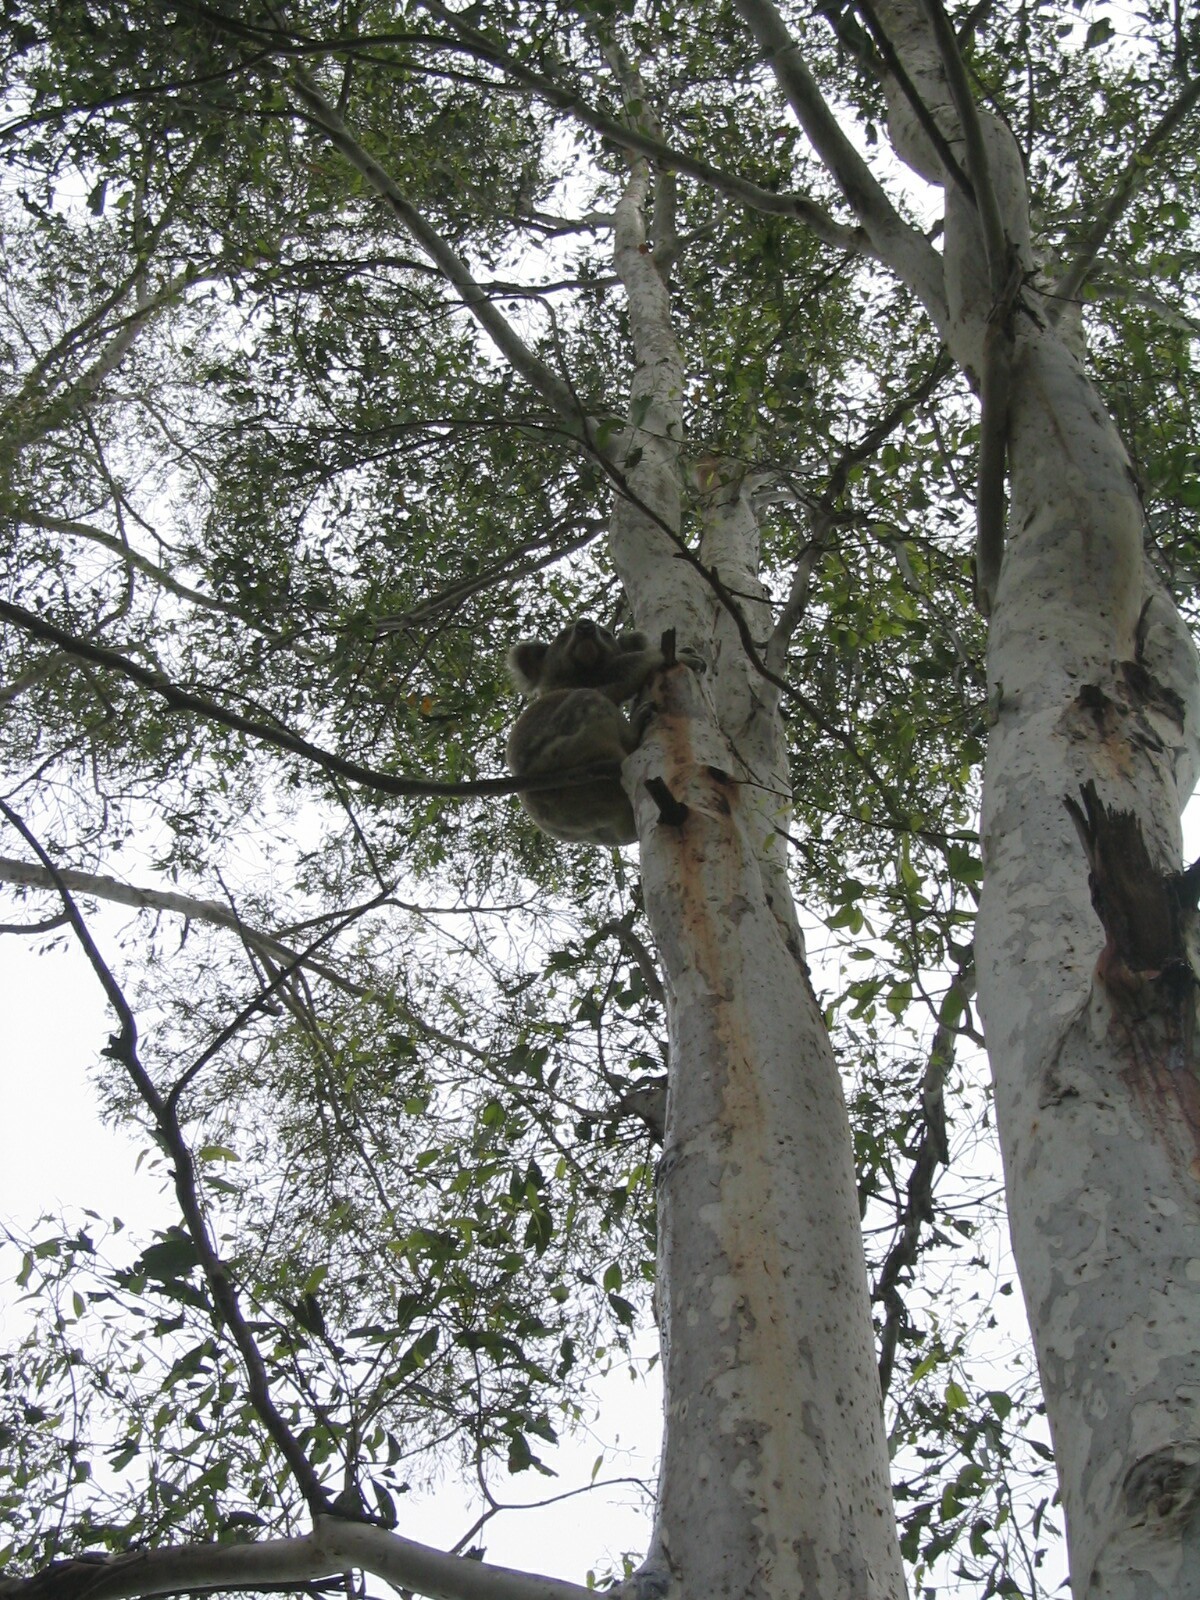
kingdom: Animalia
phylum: Chordata
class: Mammalia
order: Diprotodontia
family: Phascolarctidae
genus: Phascolarctos
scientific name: Phascolarctos cinereus
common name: Koala
